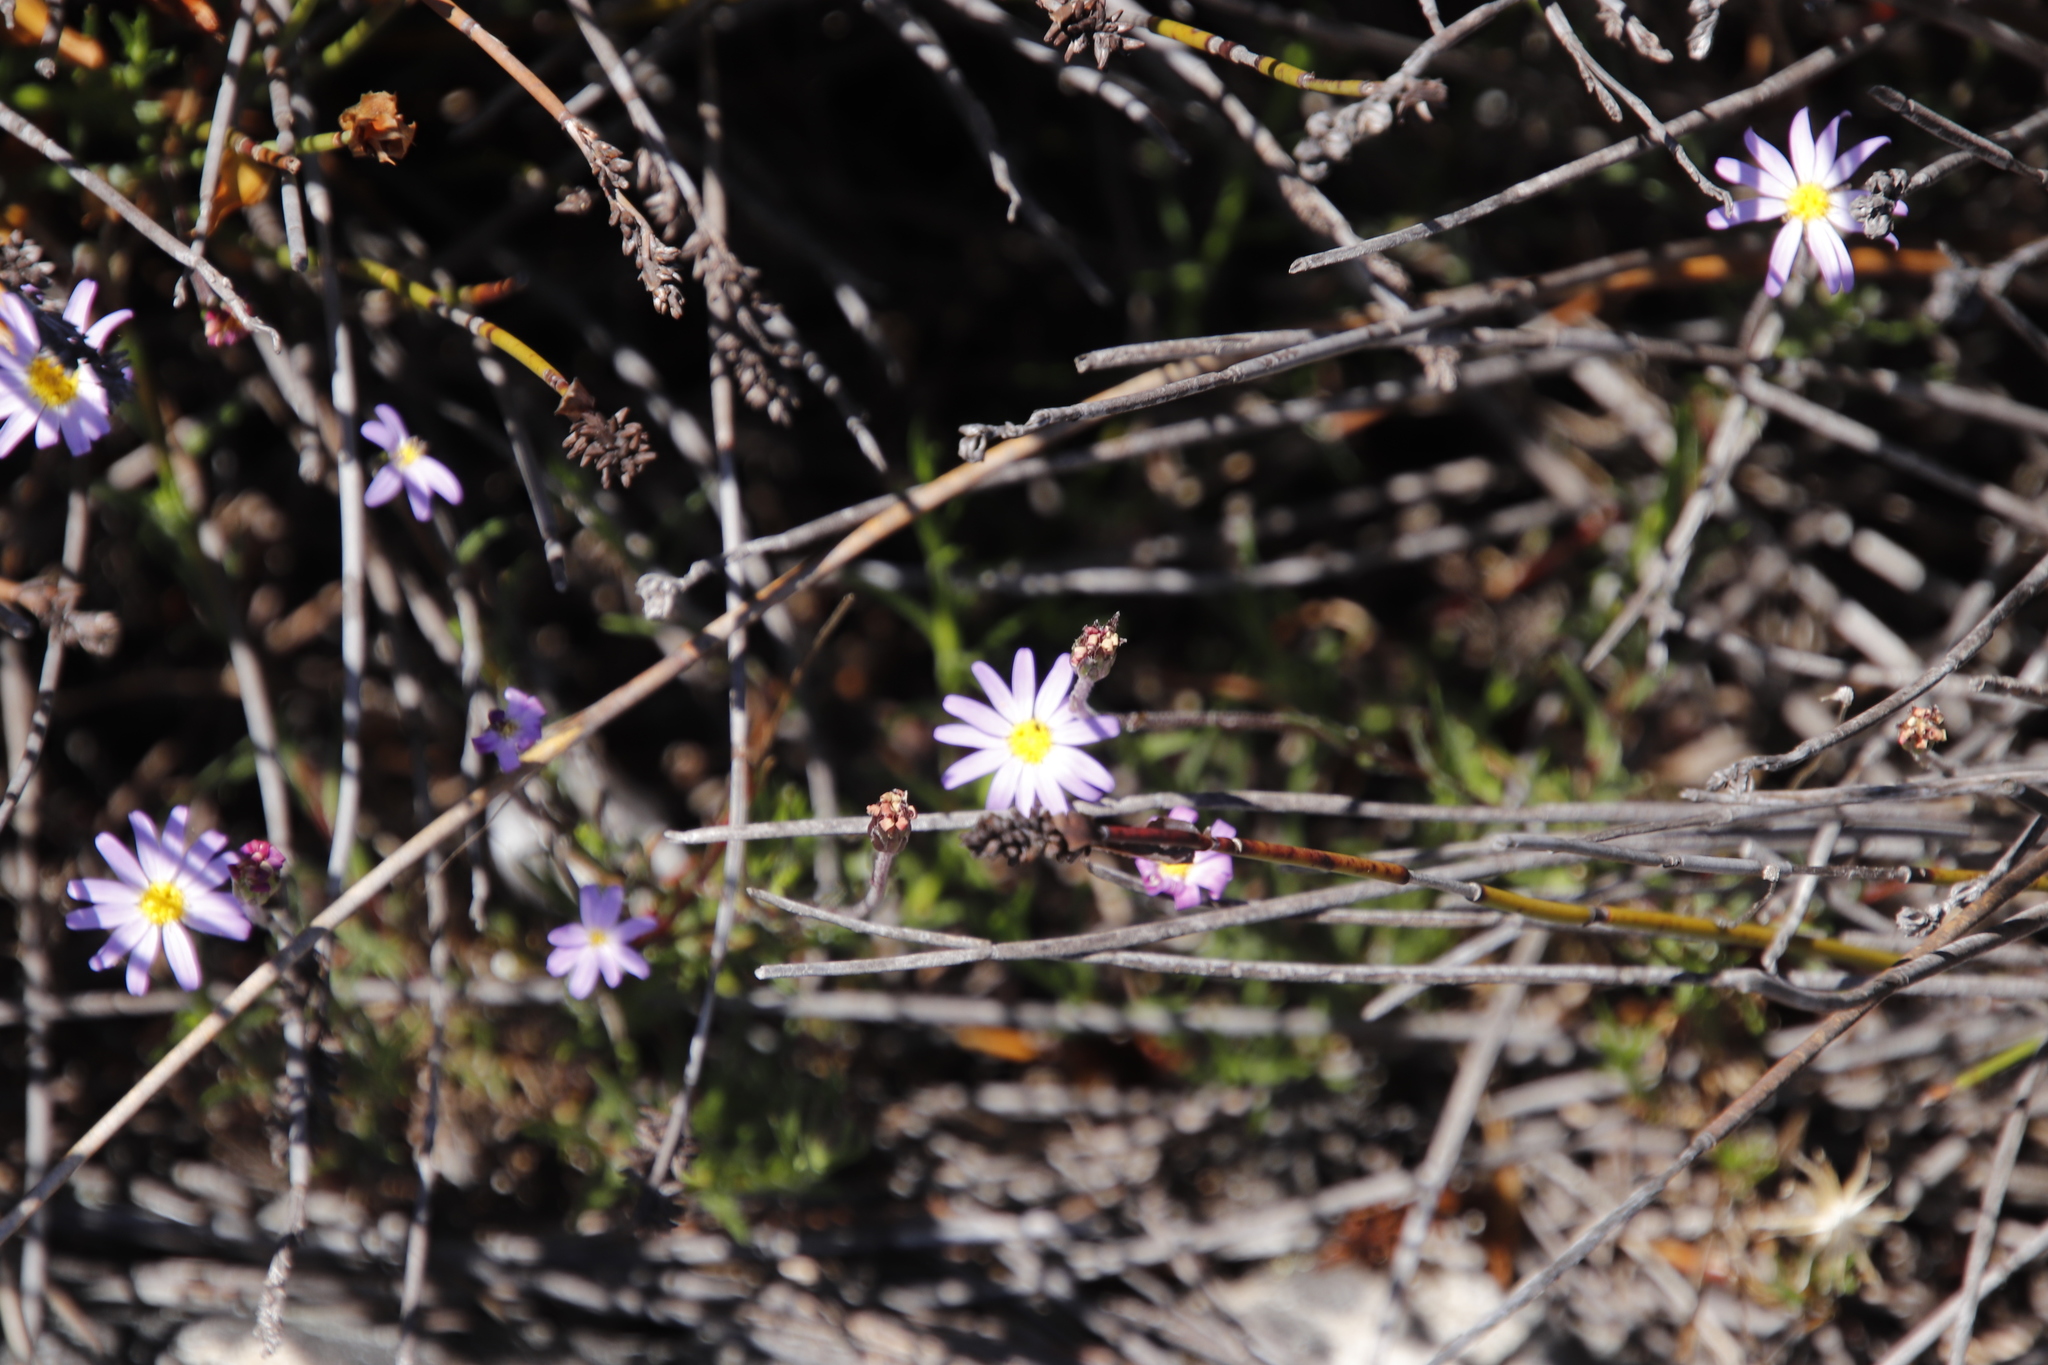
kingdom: Plantae
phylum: Tracheophyta
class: Magnoliopsida
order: Asterales
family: Asteraceae
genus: Zyrphelis
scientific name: Zyrphelis taxifolia
